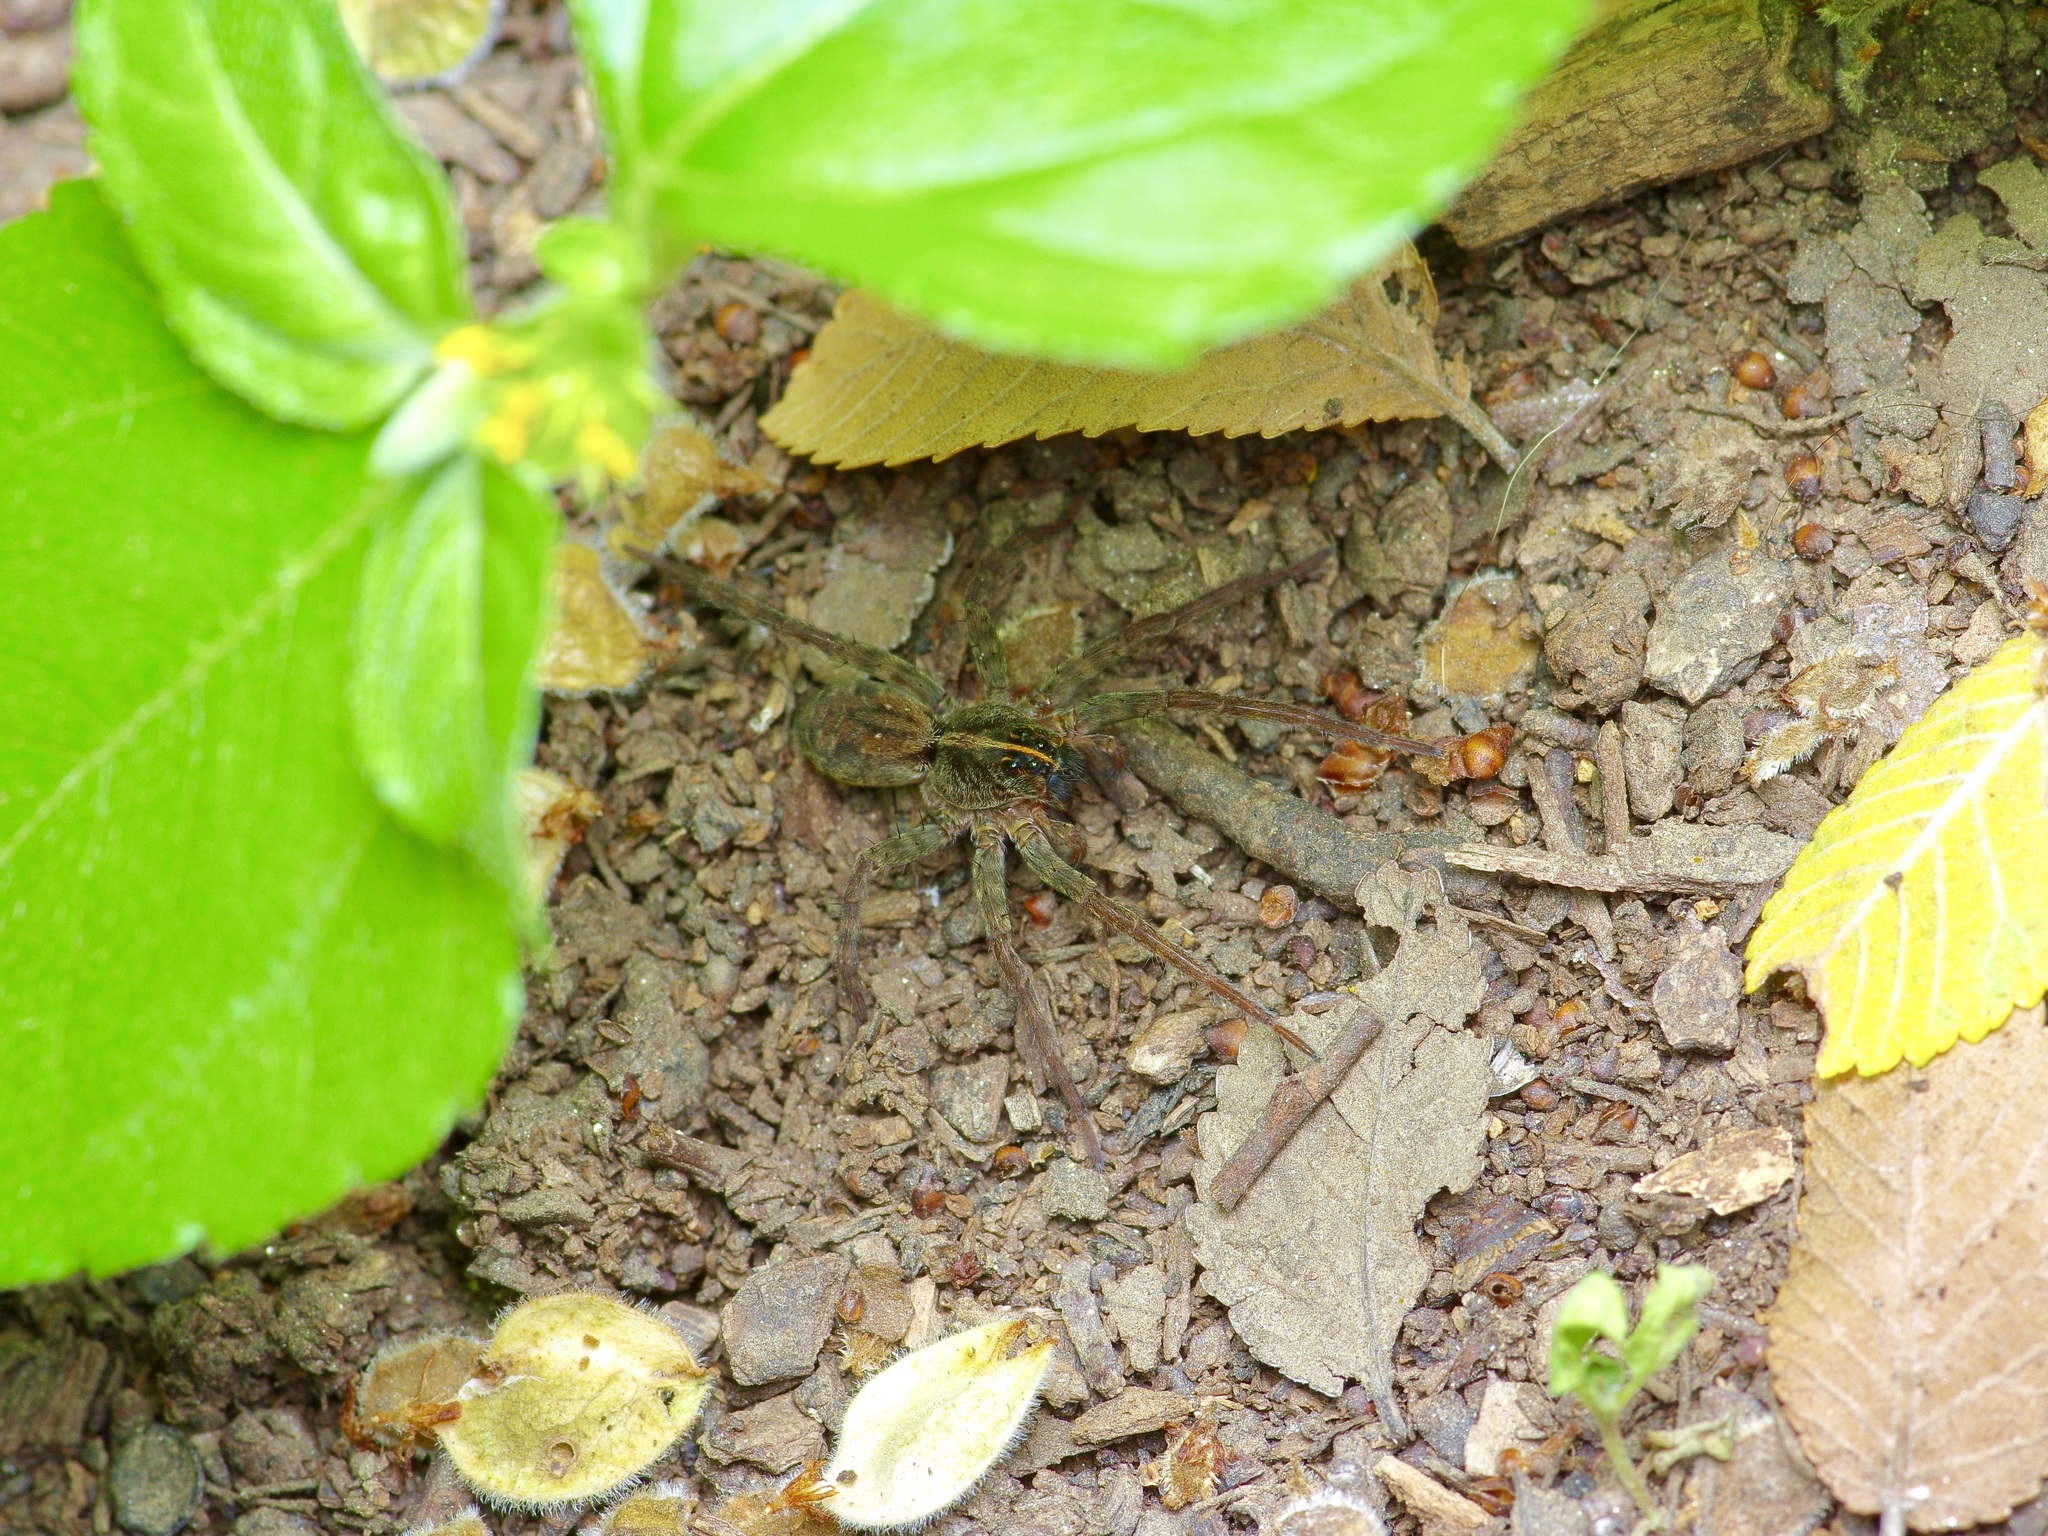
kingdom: Animalia
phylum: Arthropoda
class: Arachnida
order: Araneae
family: Lycosidae
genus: Tigrosa
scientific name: Tigrosa annexa
